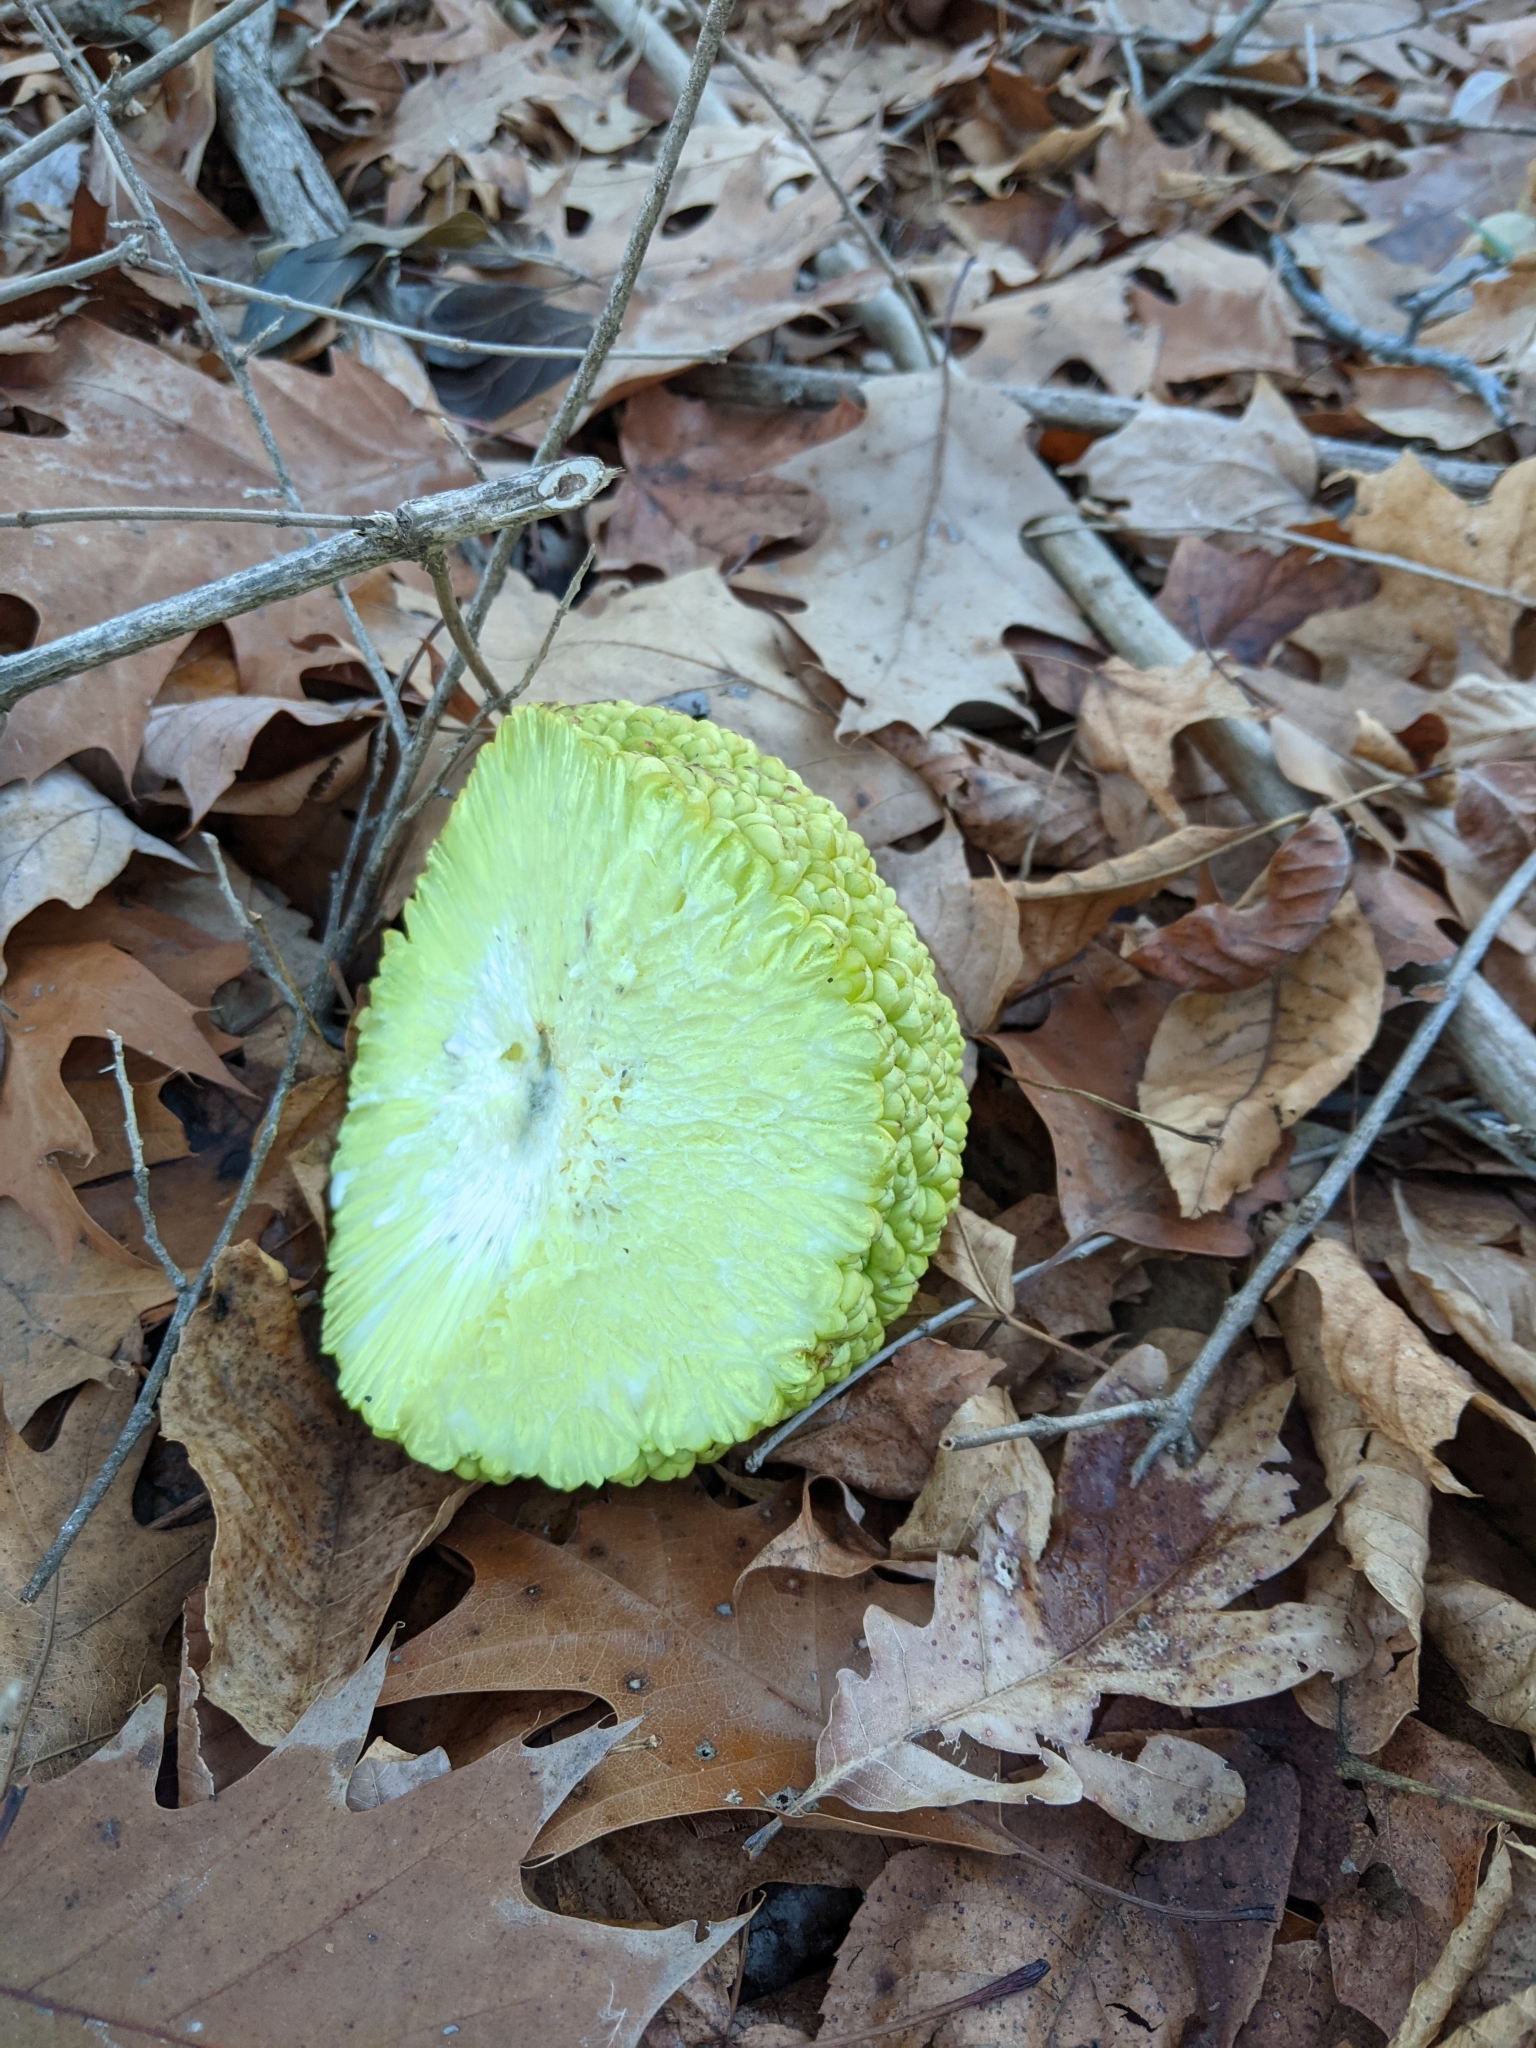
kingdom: Plantae
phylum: Tracheophyta
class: Magnoliopsida
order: Rosales
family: Moraceae
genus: Maclura
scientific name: Maclura pomifera
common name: Osage-orange
